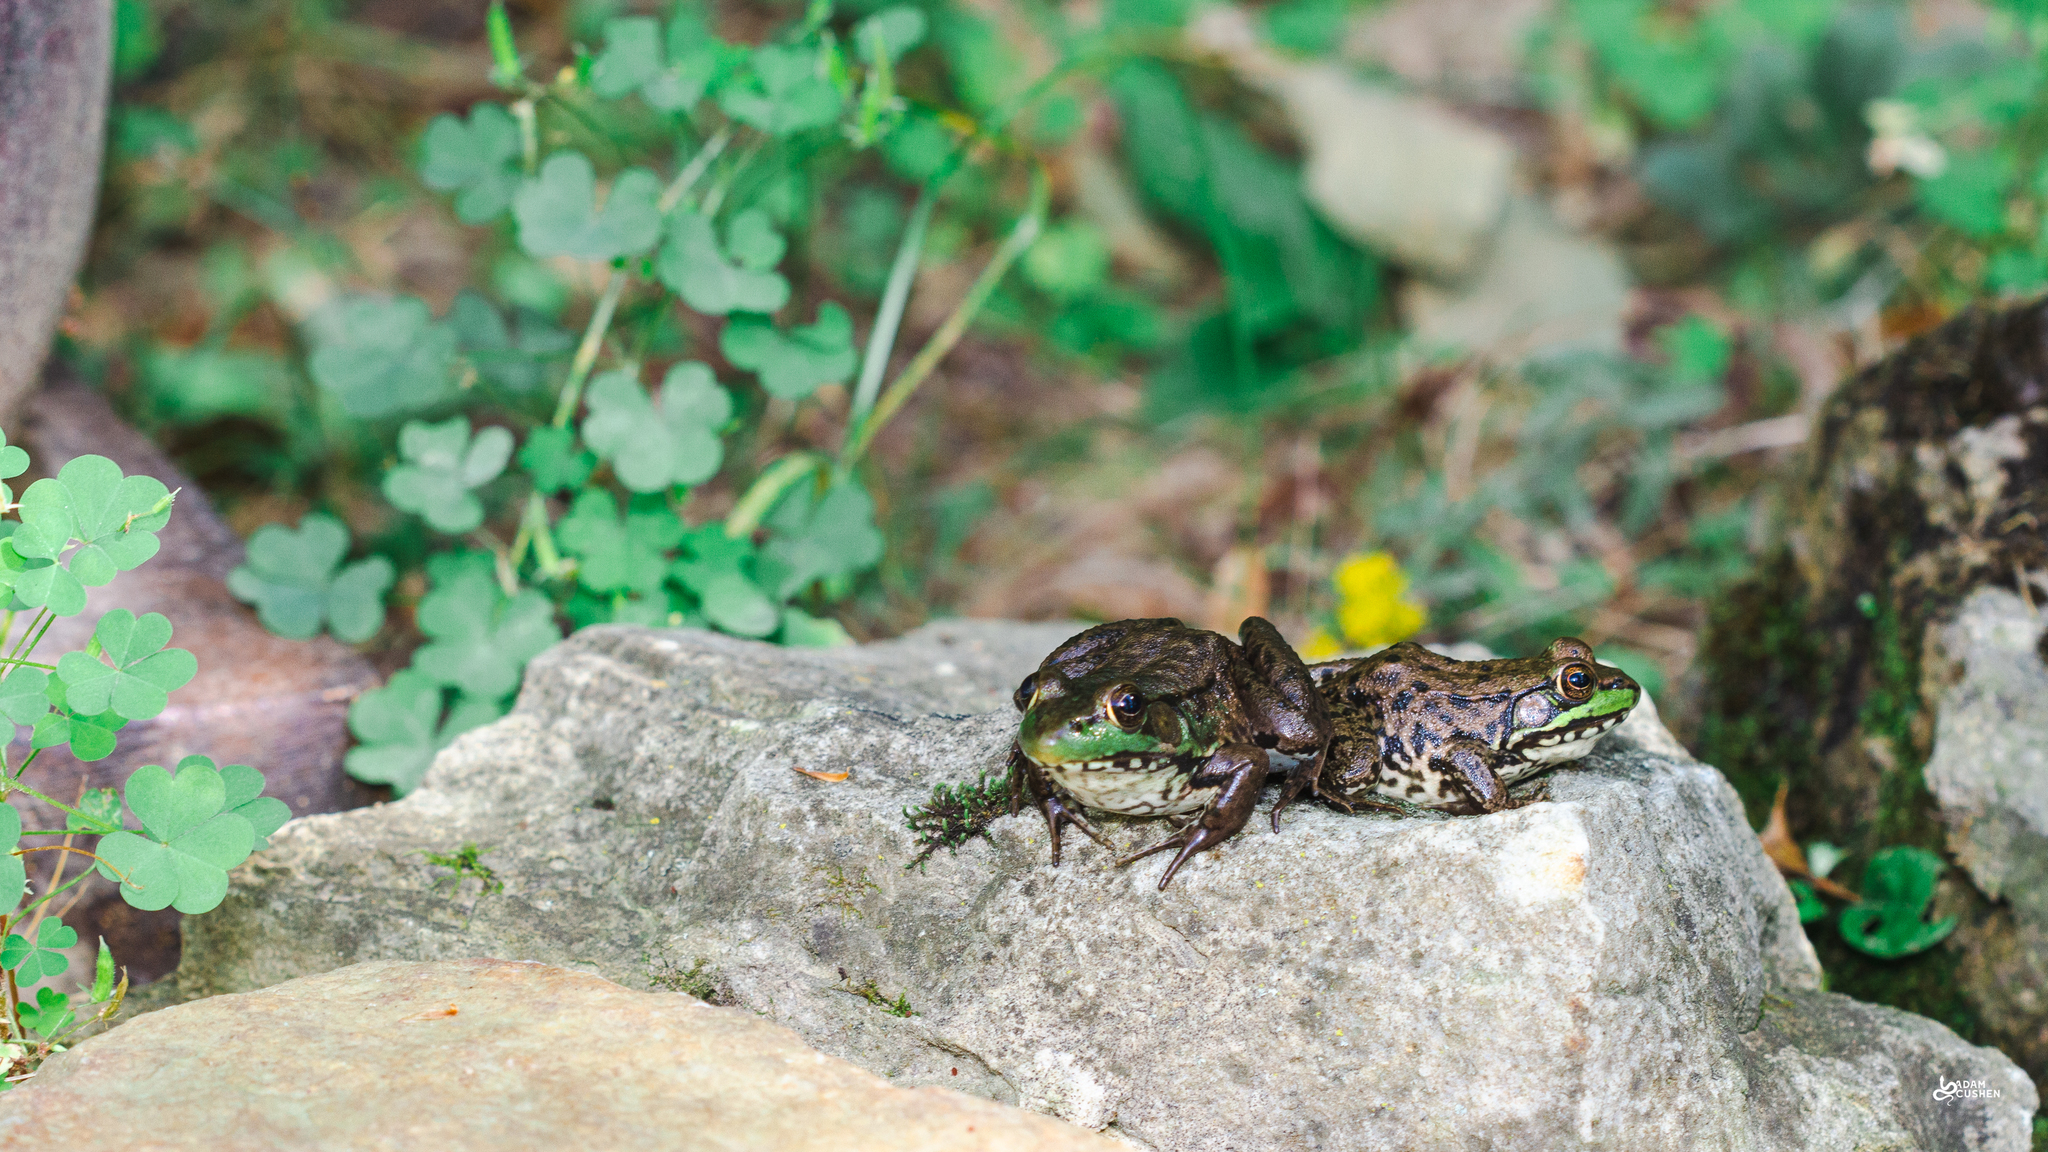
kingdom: Animalia
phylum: Chordata
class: Amphibia
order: Anura
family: Ranidae
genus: Lithobates
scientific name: Lithobates clamitans
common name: Green frog
